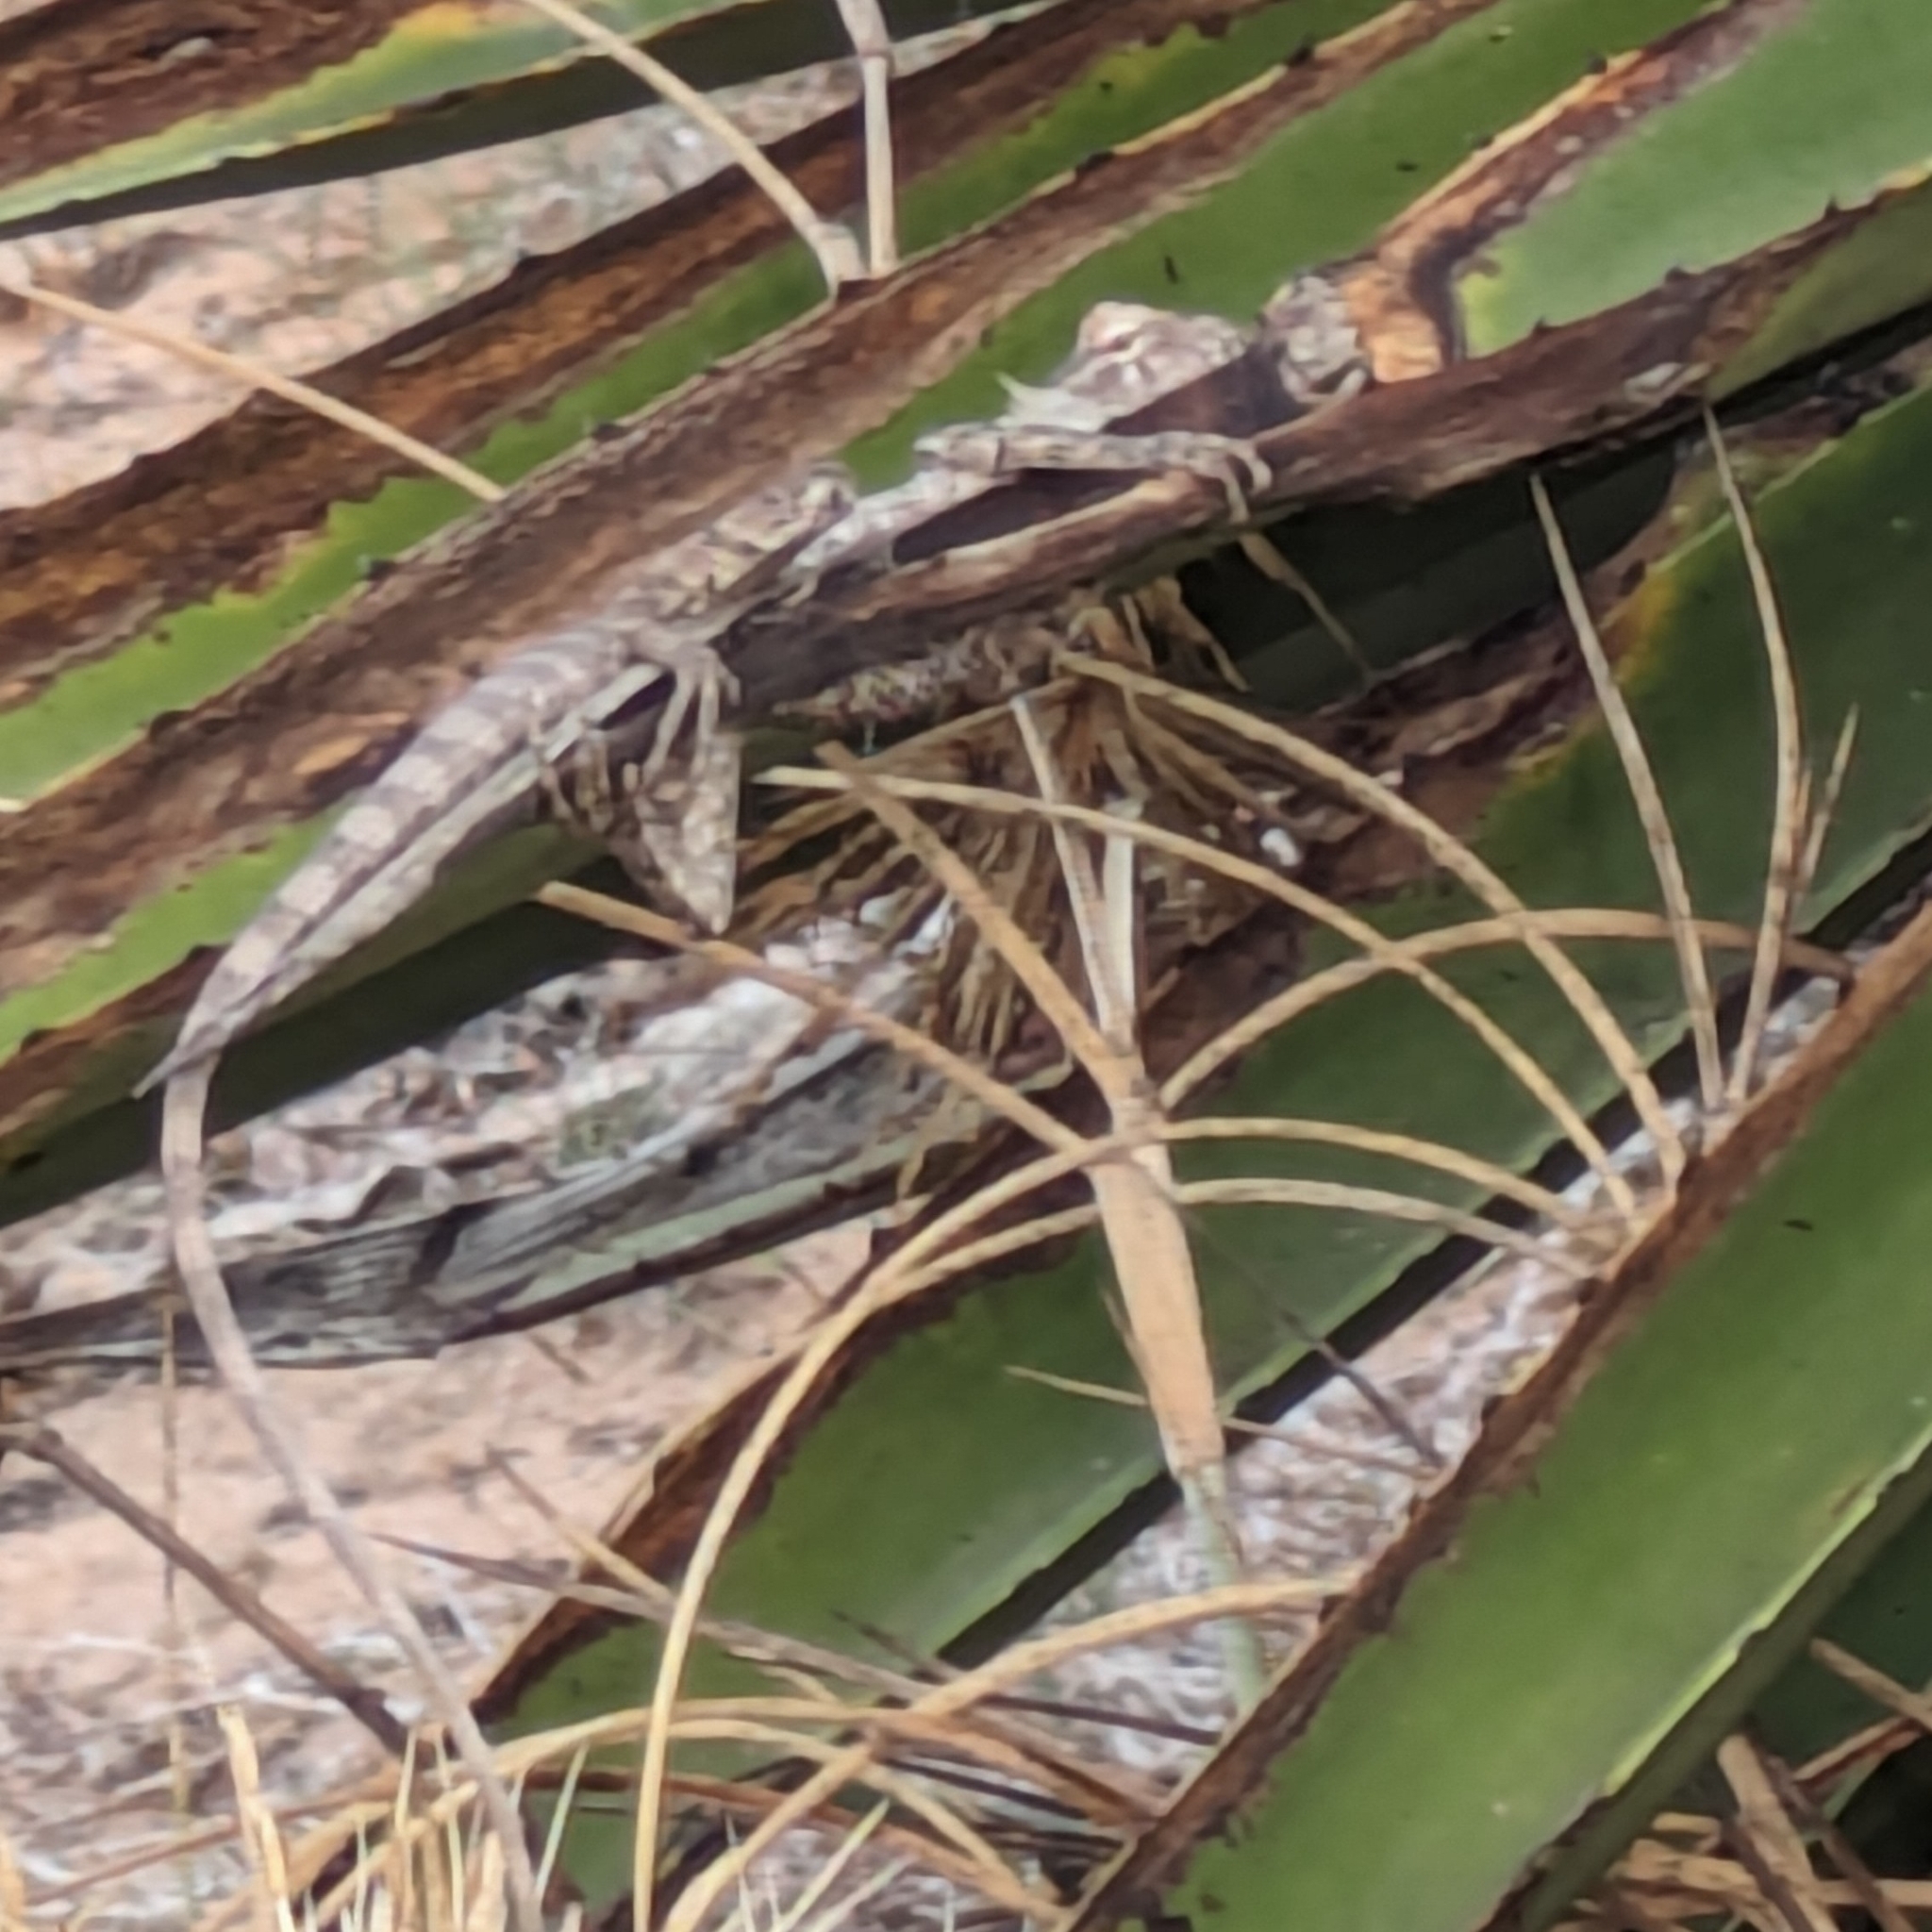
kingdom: Animalia
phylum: Chordata
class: Squamata
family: Agamidae
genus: Calotes
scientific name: Calotes versicolor
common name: Oriental garden lizard
